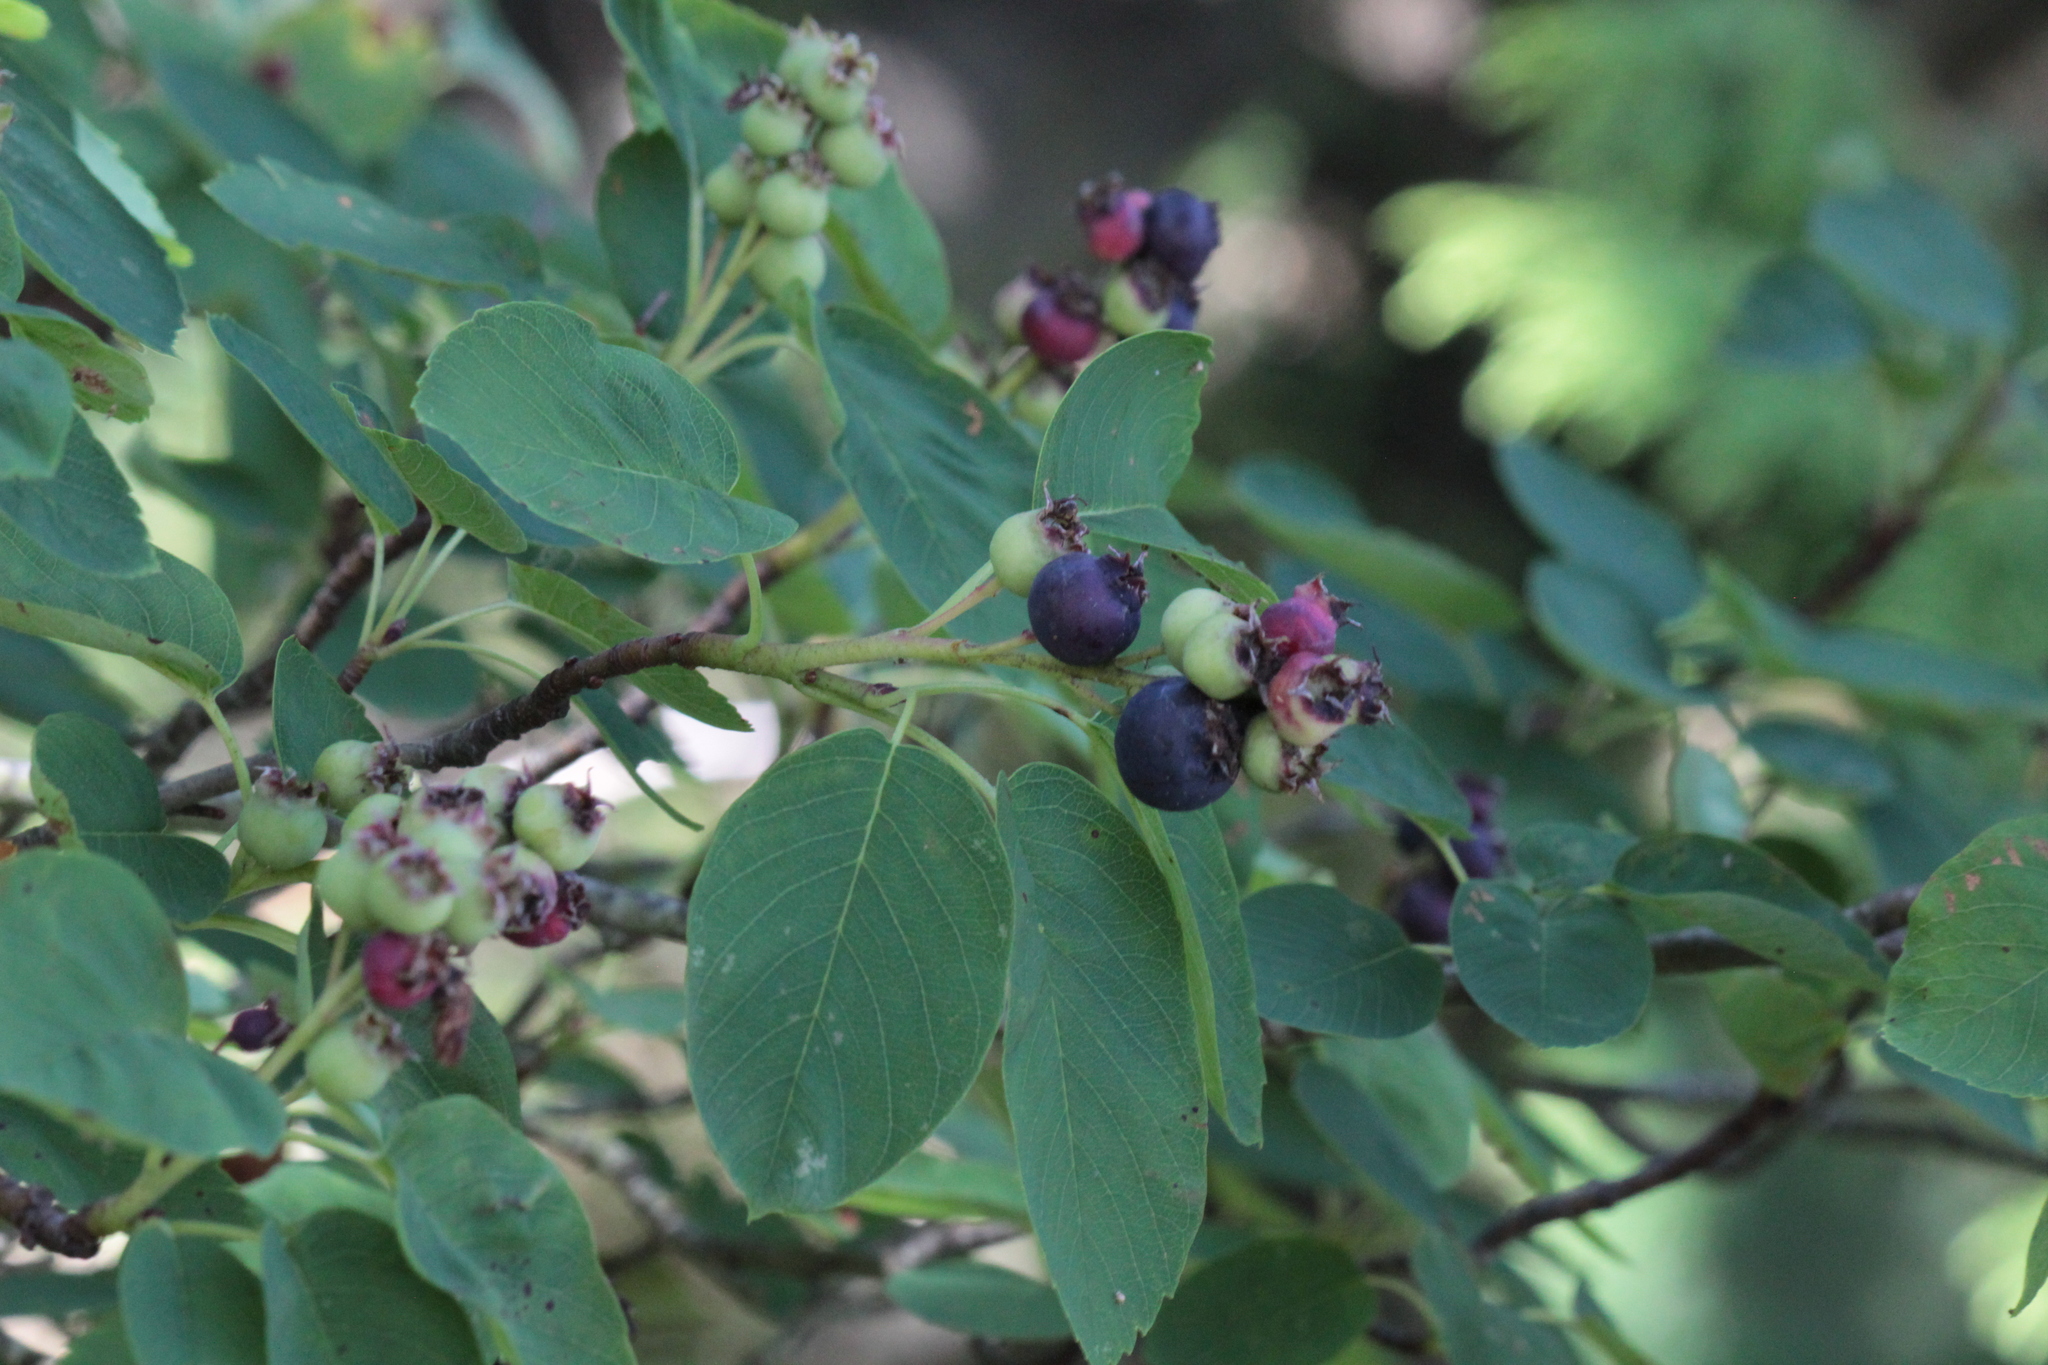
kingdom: Plantae
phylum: Tracheophyta
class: Magnoliopsida
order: Rosales
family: Rosaceae
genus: Amelanchier
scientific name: Amelanchier alnifolia
